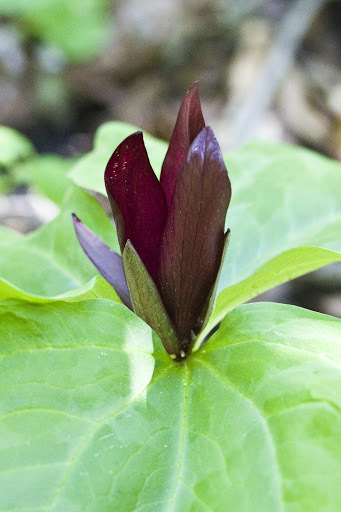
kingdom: Plantae
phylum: Tracheophyta
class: Liliopsida
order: Liliales
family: Melanthiaceae
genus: Trillium
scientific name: Trillium chloropetalum
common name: Giant trillium
